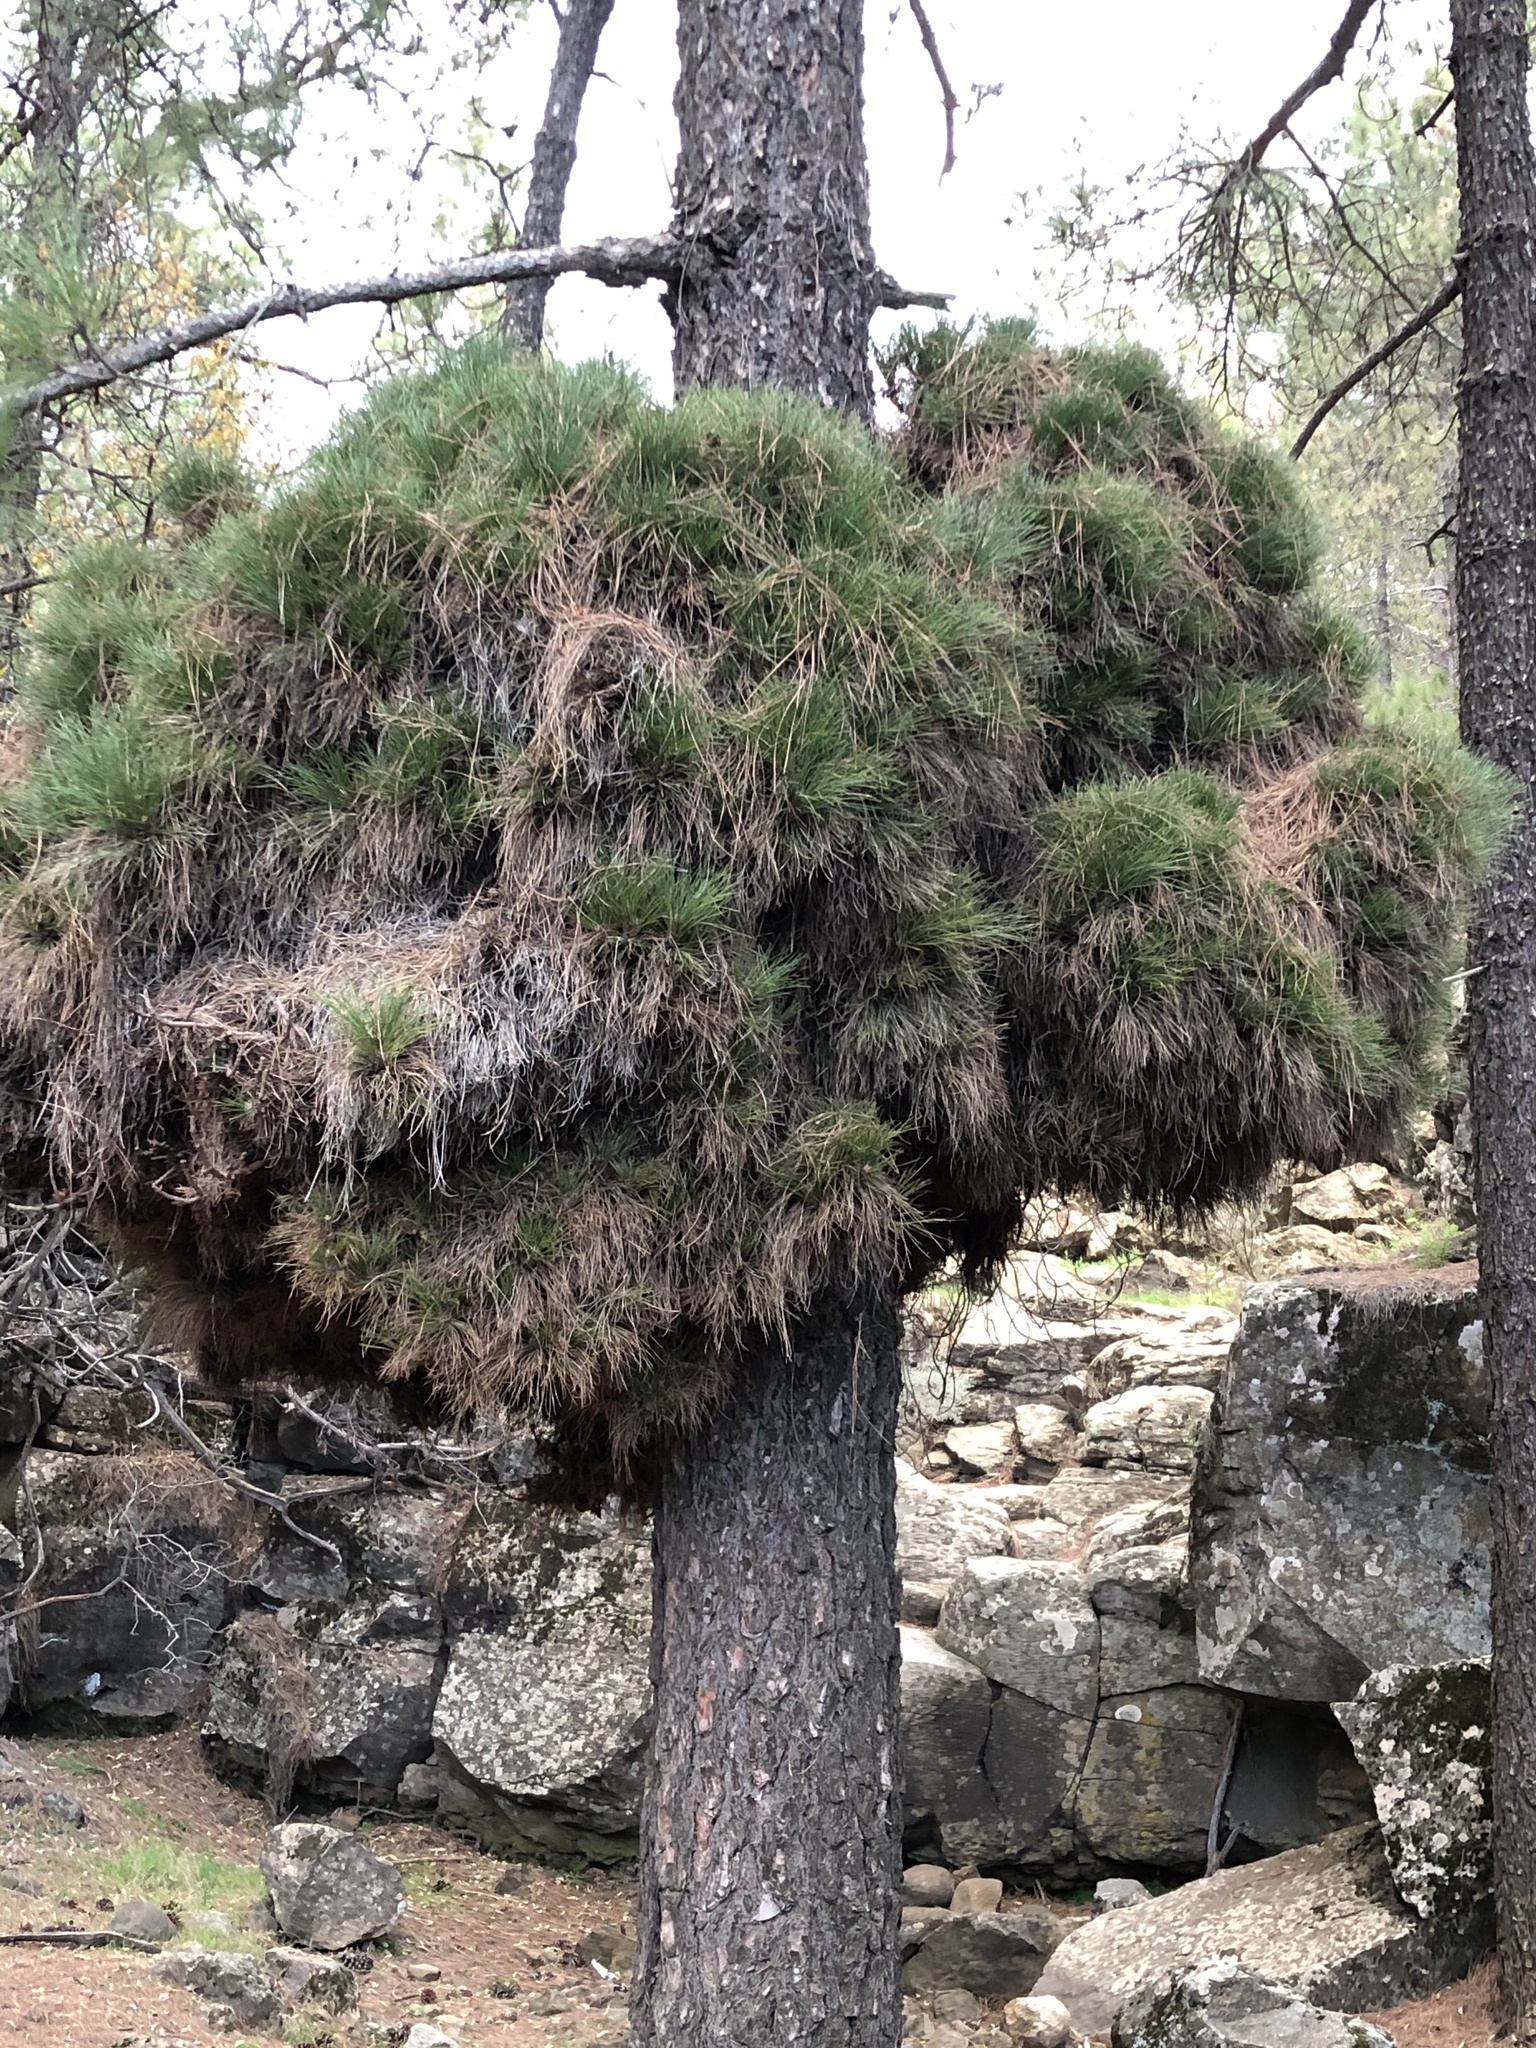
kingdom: Plantae
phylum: Tracheophyta
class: Pinopsida
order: Pinales
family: Pinaceae
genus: Pinus
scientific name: Pinus canariensis
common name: Canary islands pine
